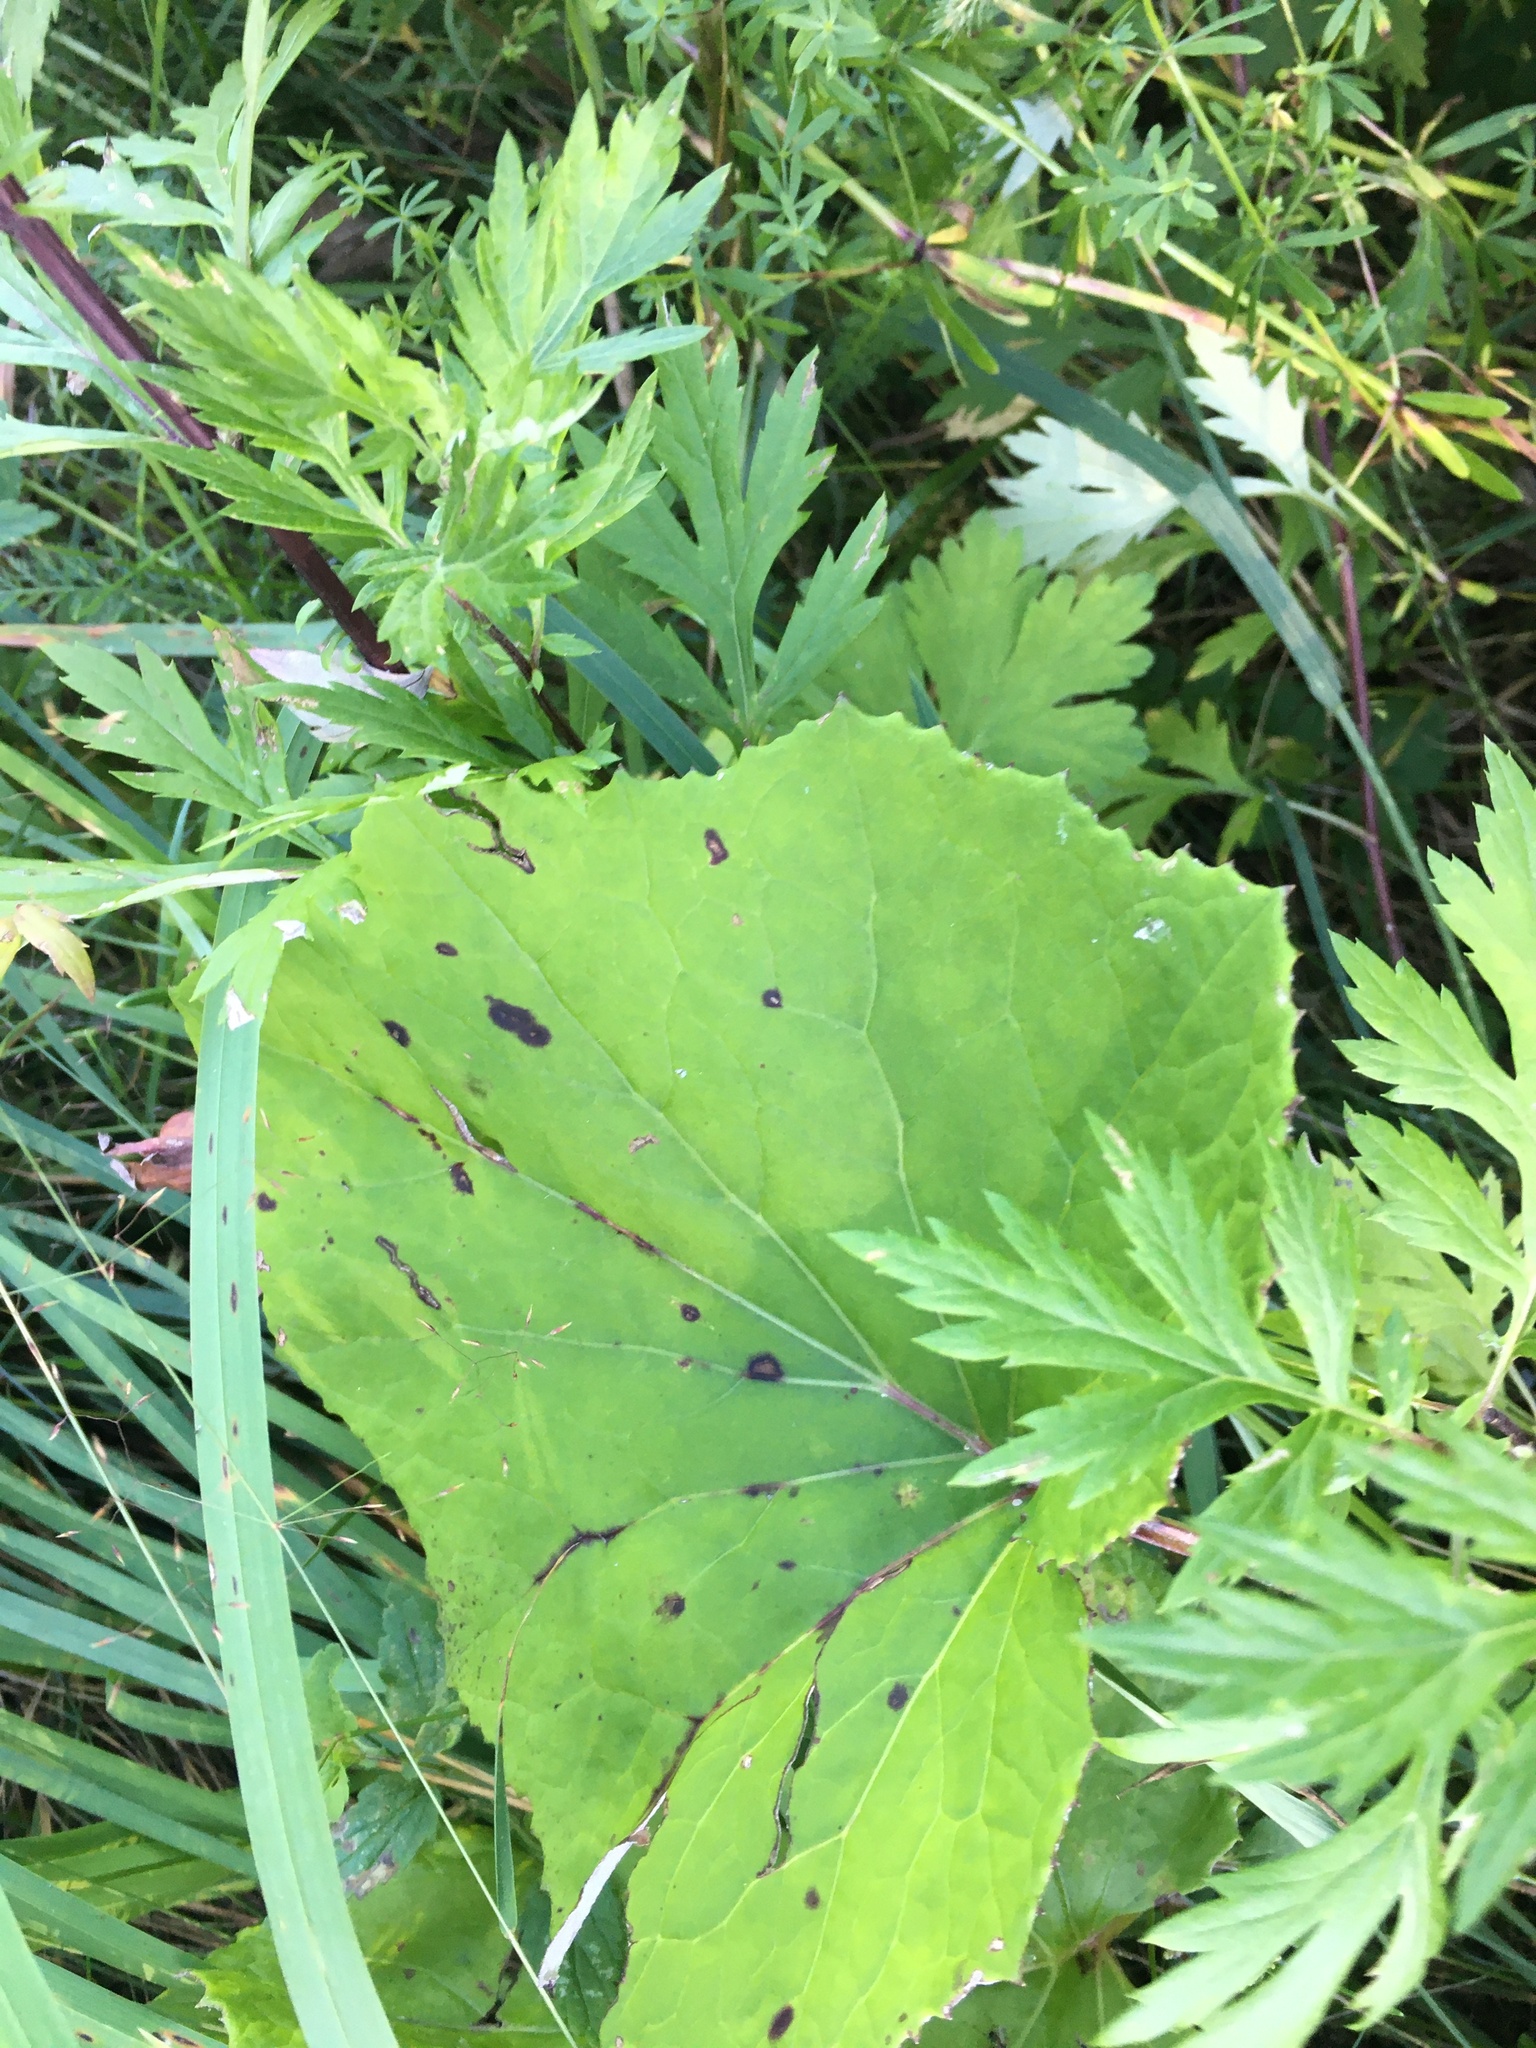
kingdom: Plantae
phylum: Tracheophyta
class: Magnoliopsida
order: Asterales
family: Asteraceae
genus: Tussilago
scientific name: Tussilago farfara
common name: Coltsfoot
